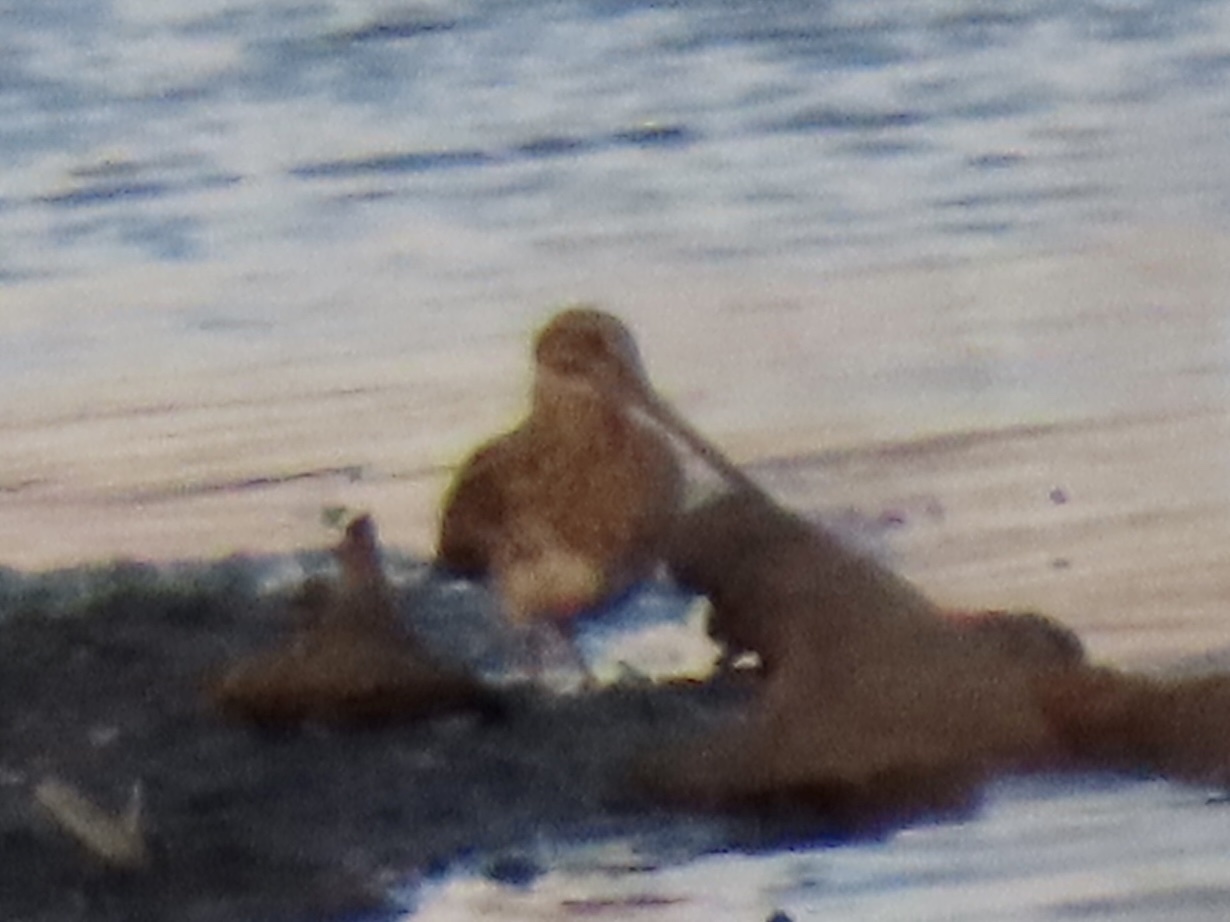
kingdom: Animalia
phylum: Chordata
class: Aves
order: Charadriiformes
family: Scolopacidae
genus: Gallinago
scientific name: Gallinago delicata
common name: Wilson's snipe
